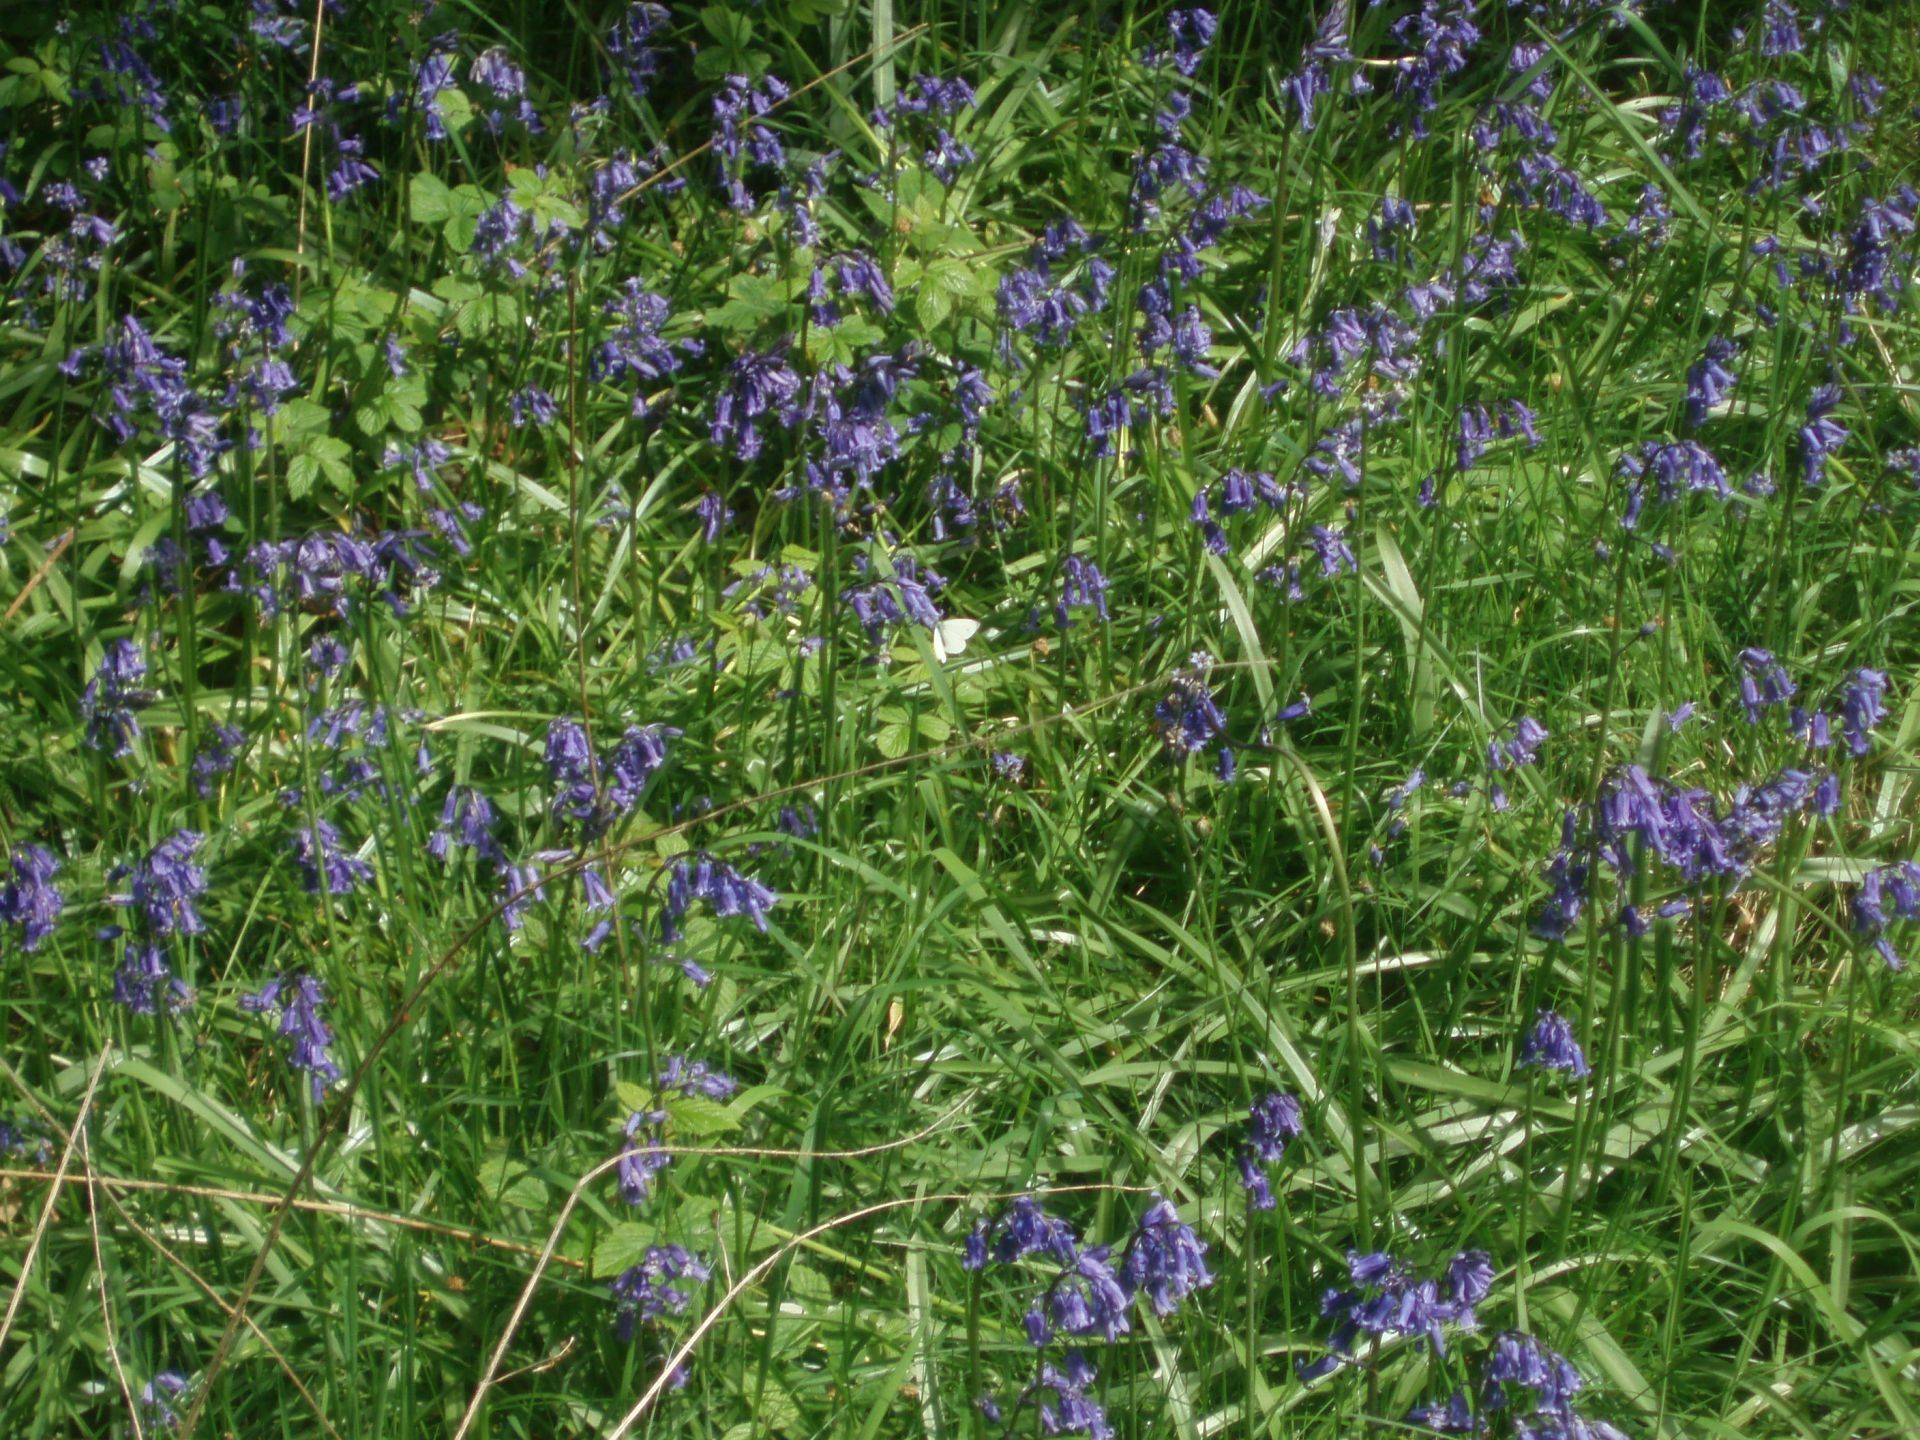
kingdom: Plantae
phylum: Tracheophyta
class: Liliopsida
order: Asparagales
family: Asparagaceae
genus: Hyacinthoides
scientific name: Hyacinthoides non-scripta
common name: Bluebell
